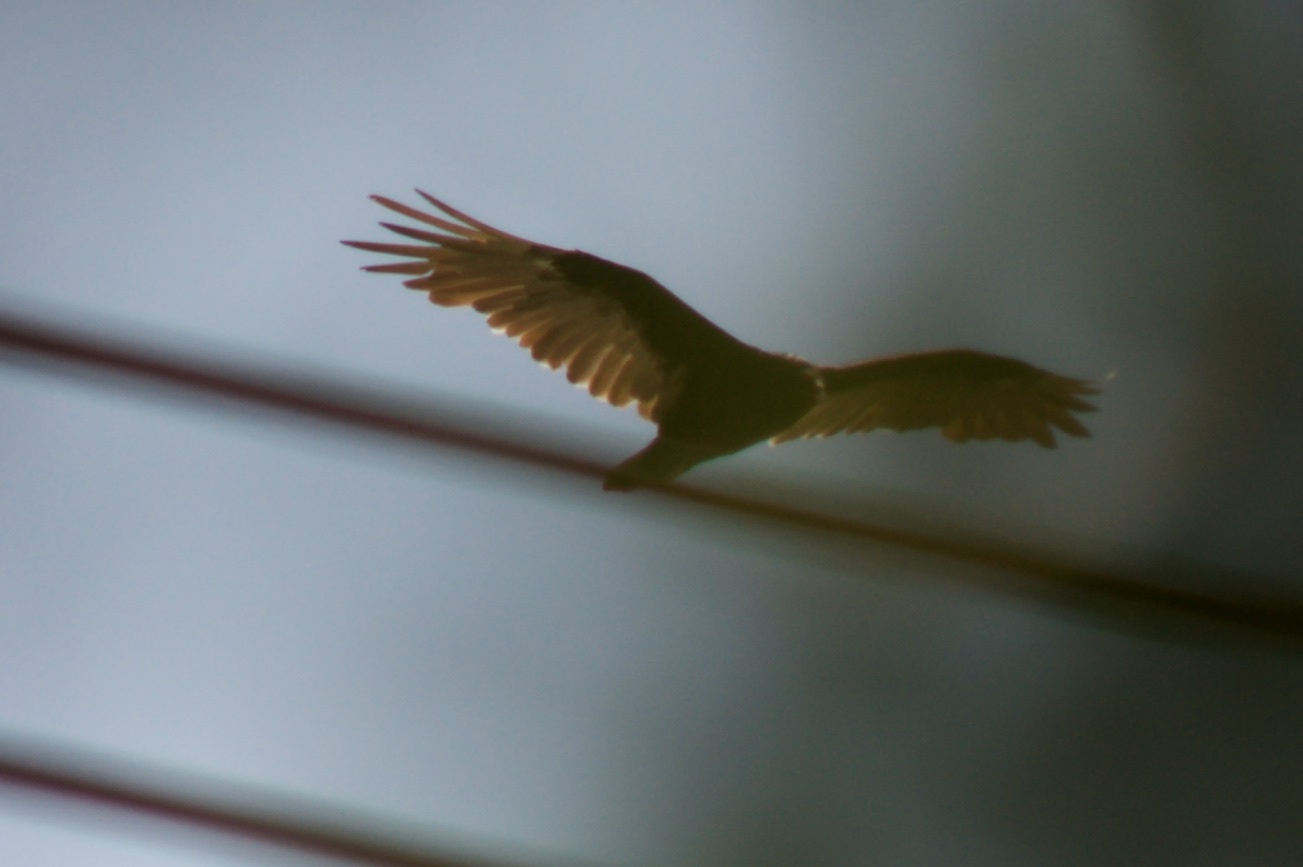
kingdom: Animalia
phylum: Chordata
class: Aves
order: Accipitriformes
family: Cathartidae
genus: Cathartes
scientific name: Cathartes aura
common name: Turkey vulture
